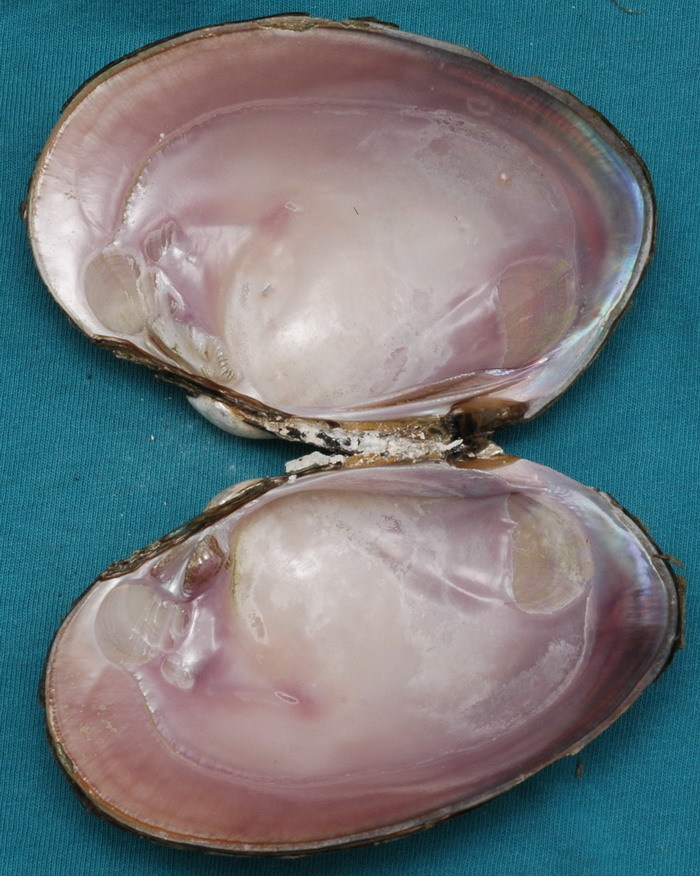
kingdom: Animalia
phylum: Mollusca
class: Bivalvia
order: Unionida
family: Unionidae
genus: Cyrtonaias
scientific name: Cyrtonaias tampicoensis
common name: Tampico pearlymussel
